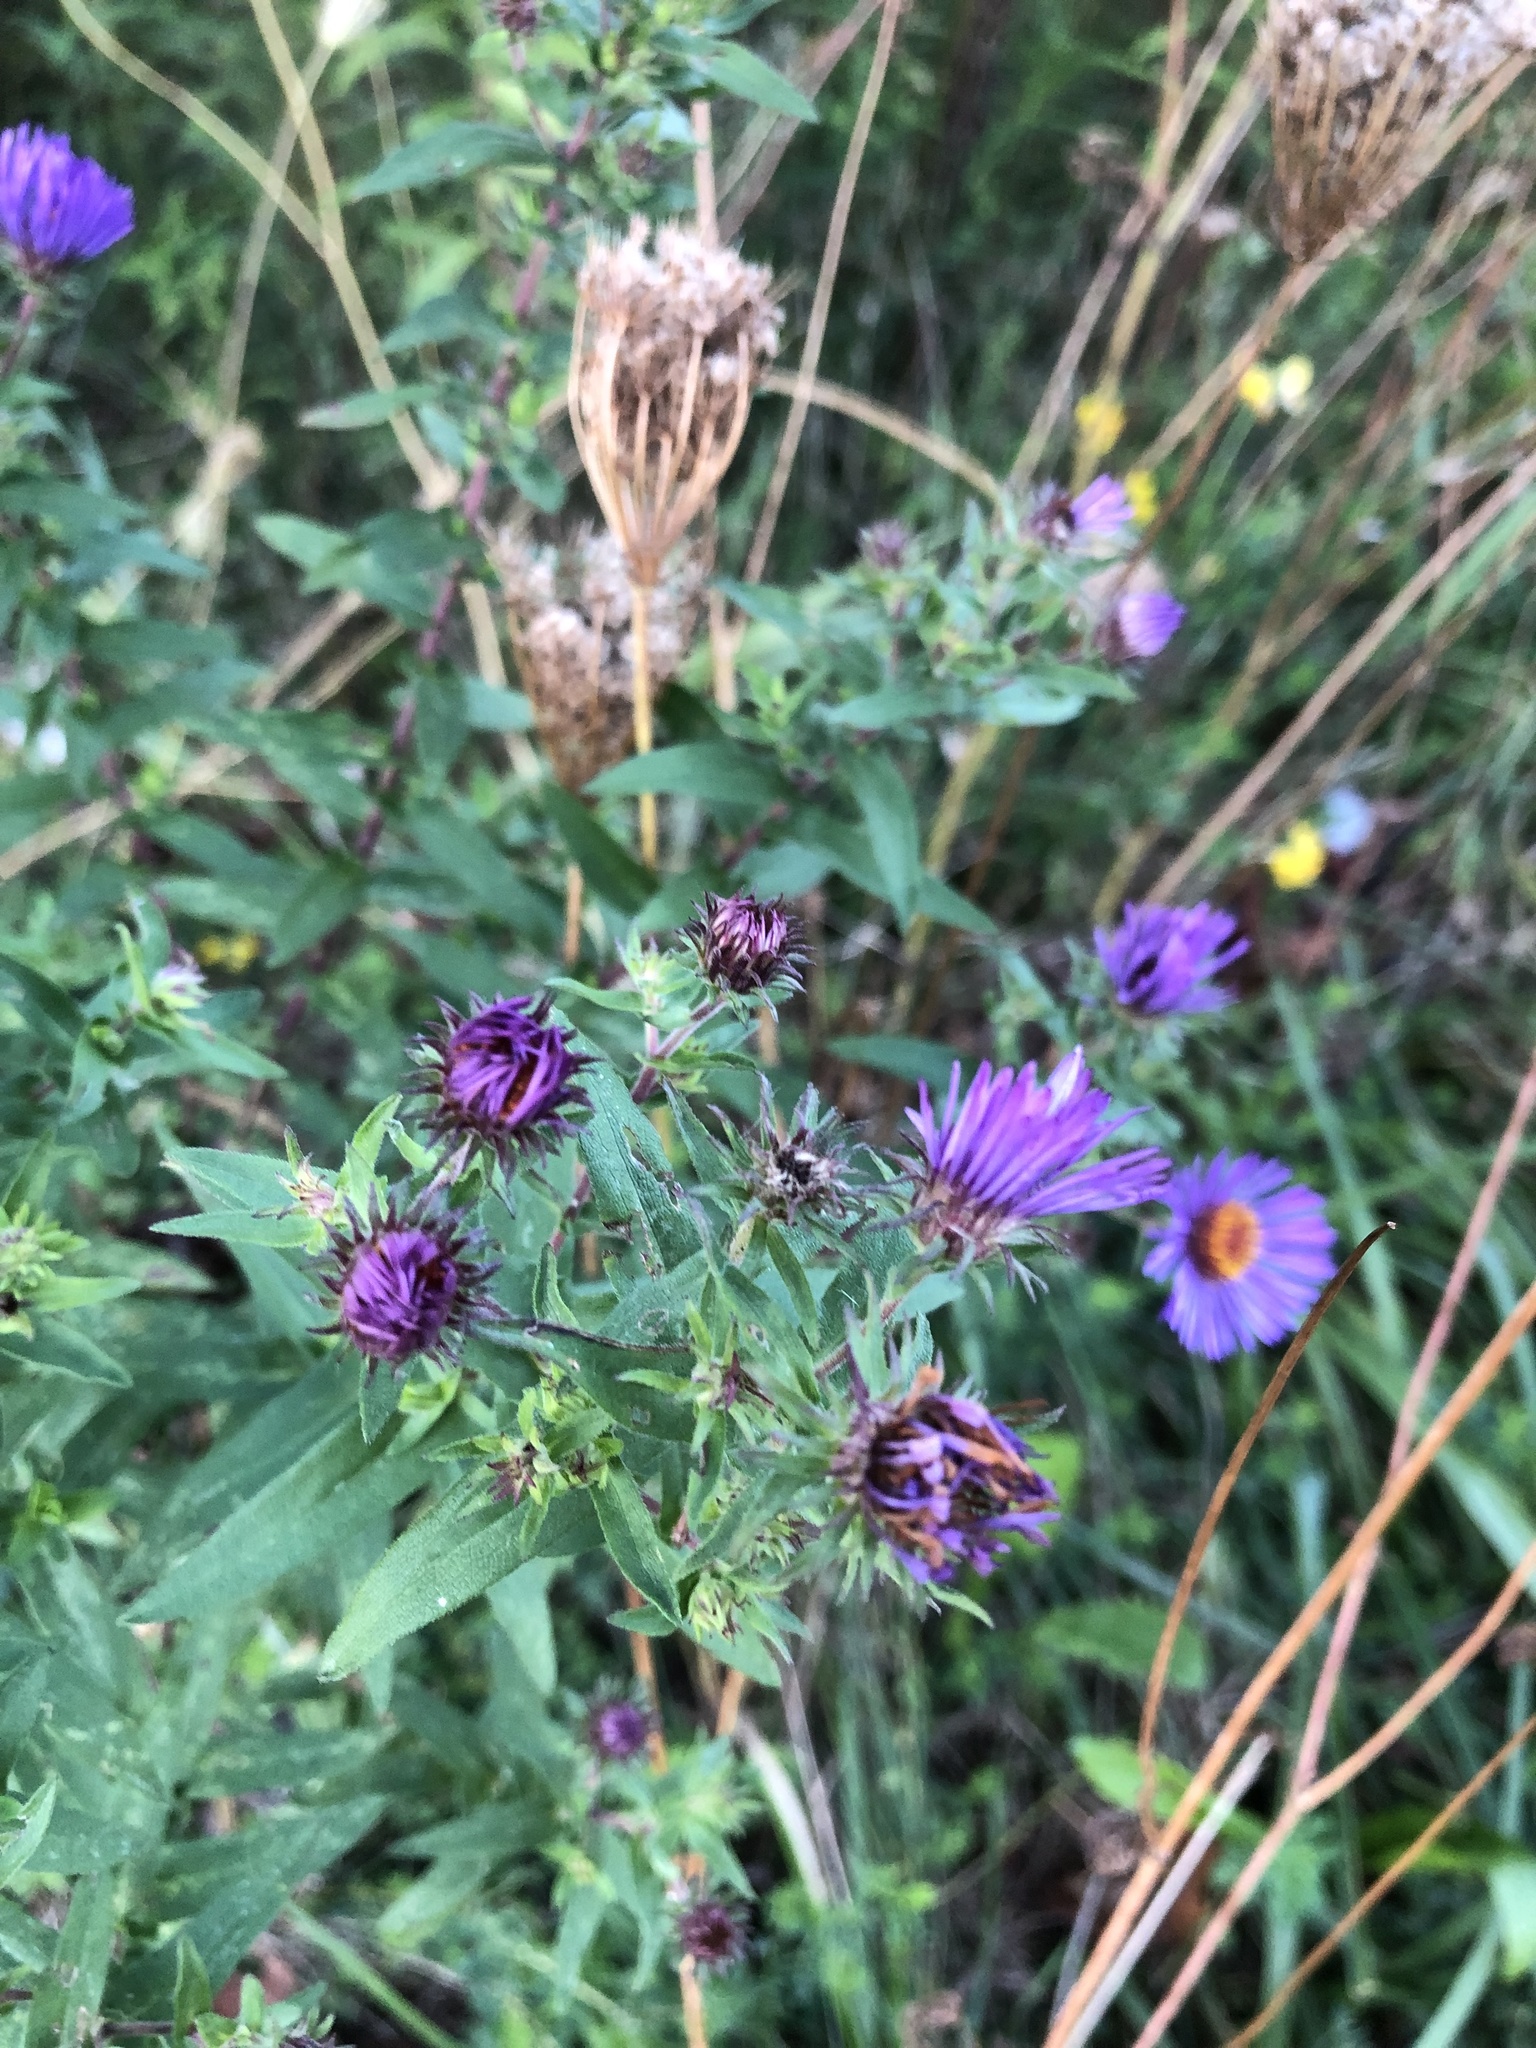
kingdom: Plantae
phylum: Tracheophyta
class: Magnoliopsida
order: Asterales
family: Asteraceae
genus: Symphyotrichum
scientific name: Symphyotrichum novae-angliae
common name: Michaelmas daisy
